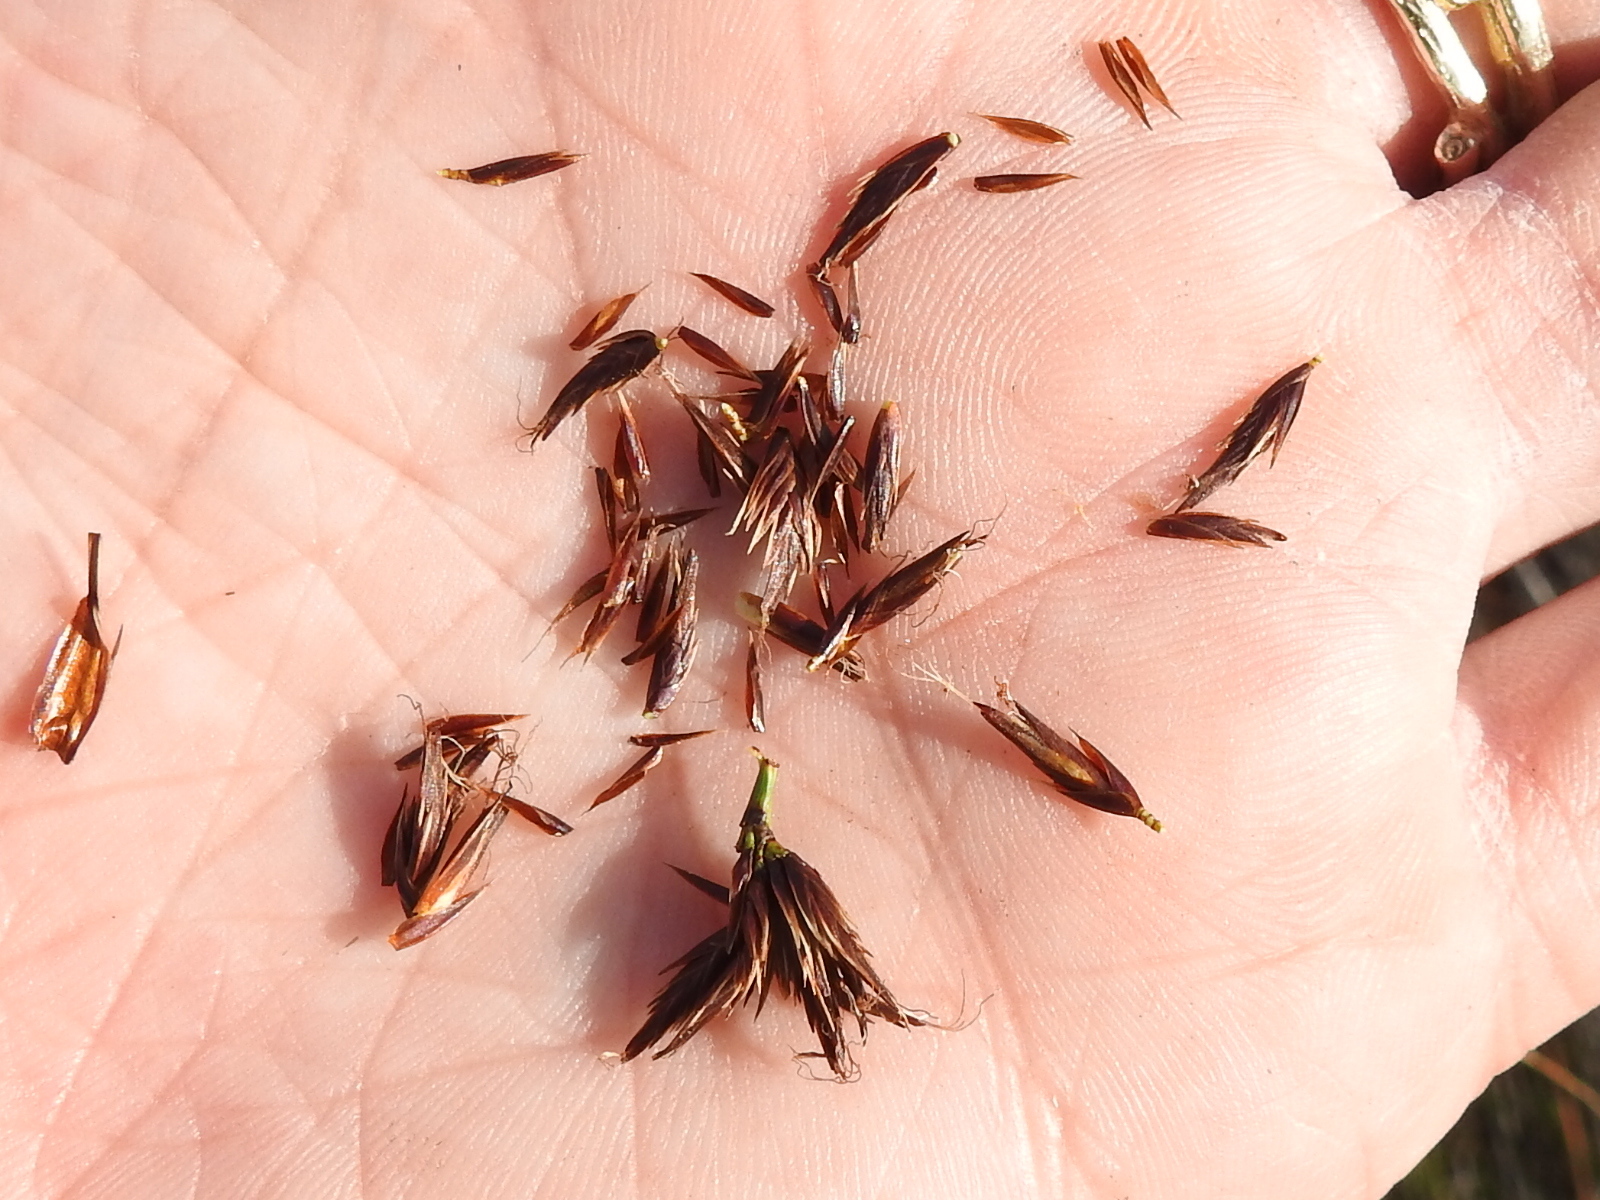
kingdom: Plantae
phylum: Tracheophyta
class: Liliopsida
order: Poales
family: Cyperaceae
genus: Schoenus
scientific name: Schoenus nigricans
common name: Black bog-rush
